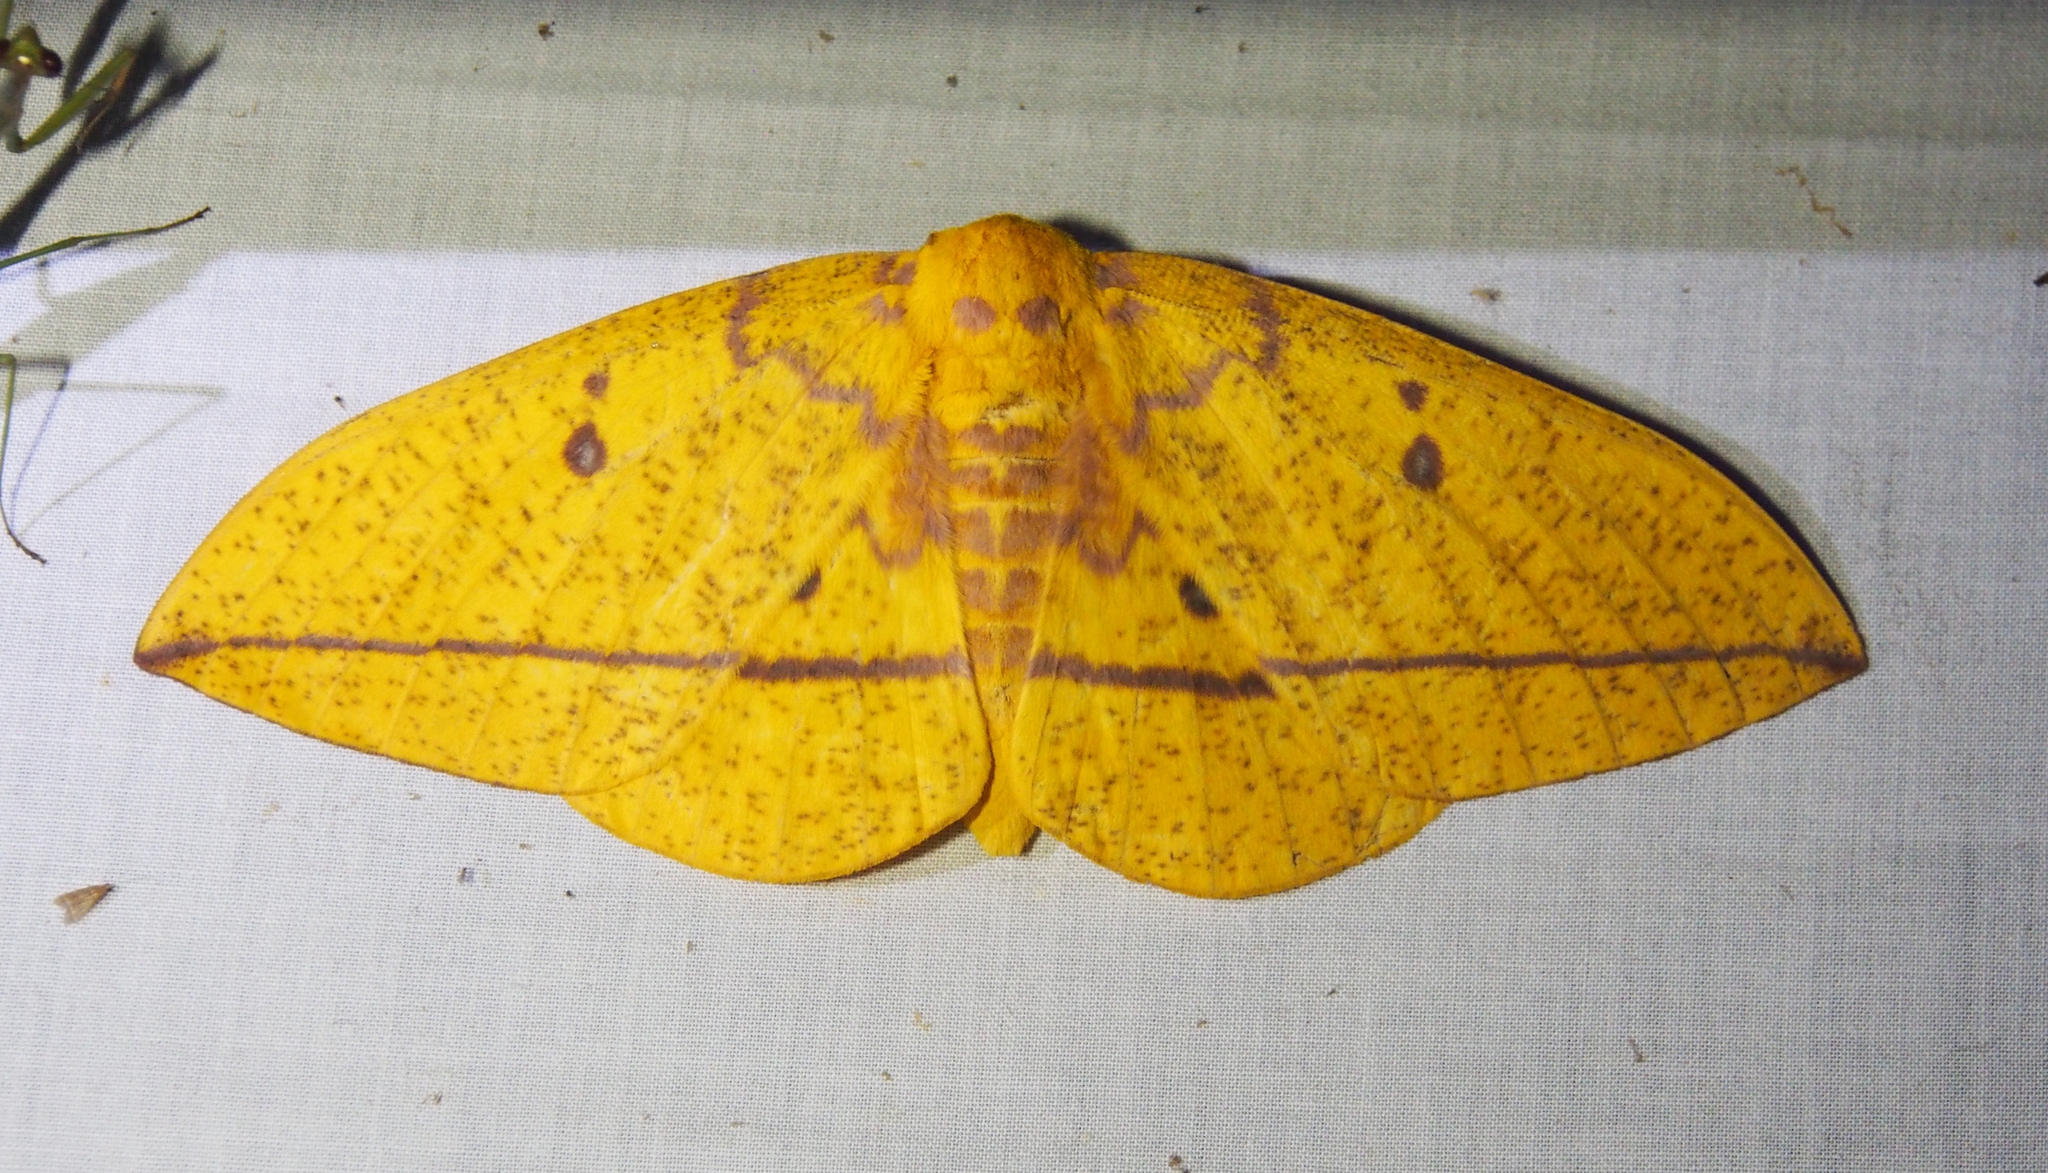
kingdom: Animalia
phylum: Arthropoda
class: Insecta
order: Lepidoptera
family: Saturniidae
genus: Eacles
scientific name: Eacles imperialis
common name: Imperial moth
